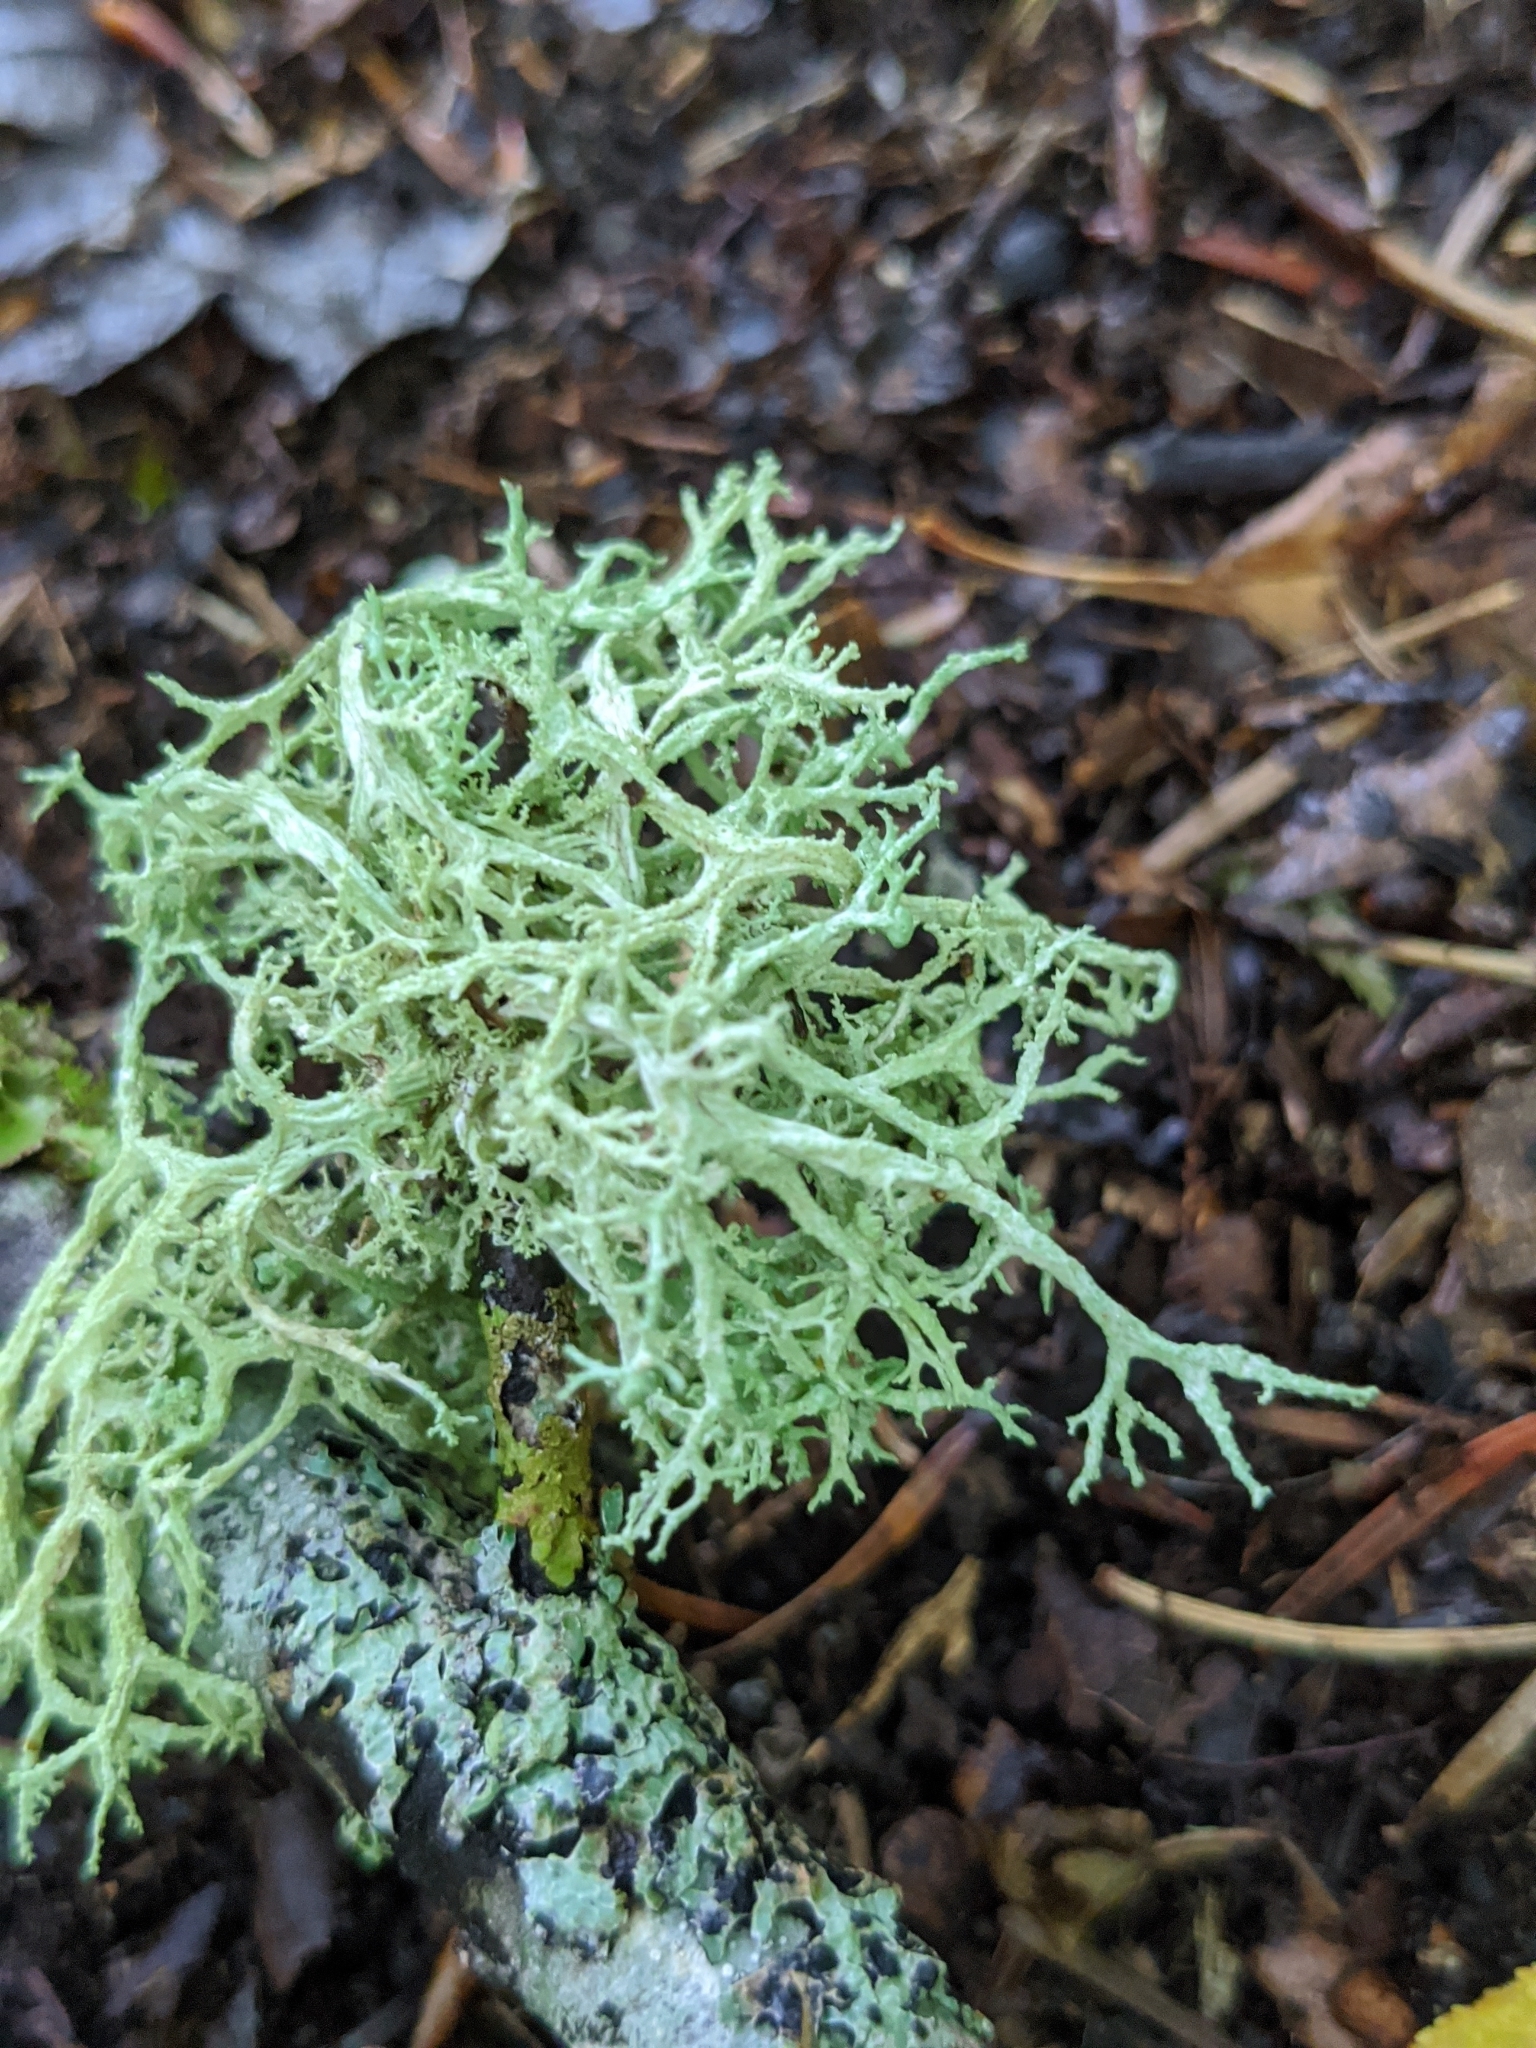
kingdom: Fungi
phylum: Ascomycota
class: Lecanoromycetes
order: Lecanorales
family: Parmeliaceae
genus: Evernia
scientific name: Evernia mesomorpha
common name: Boreal oak moss lichen
